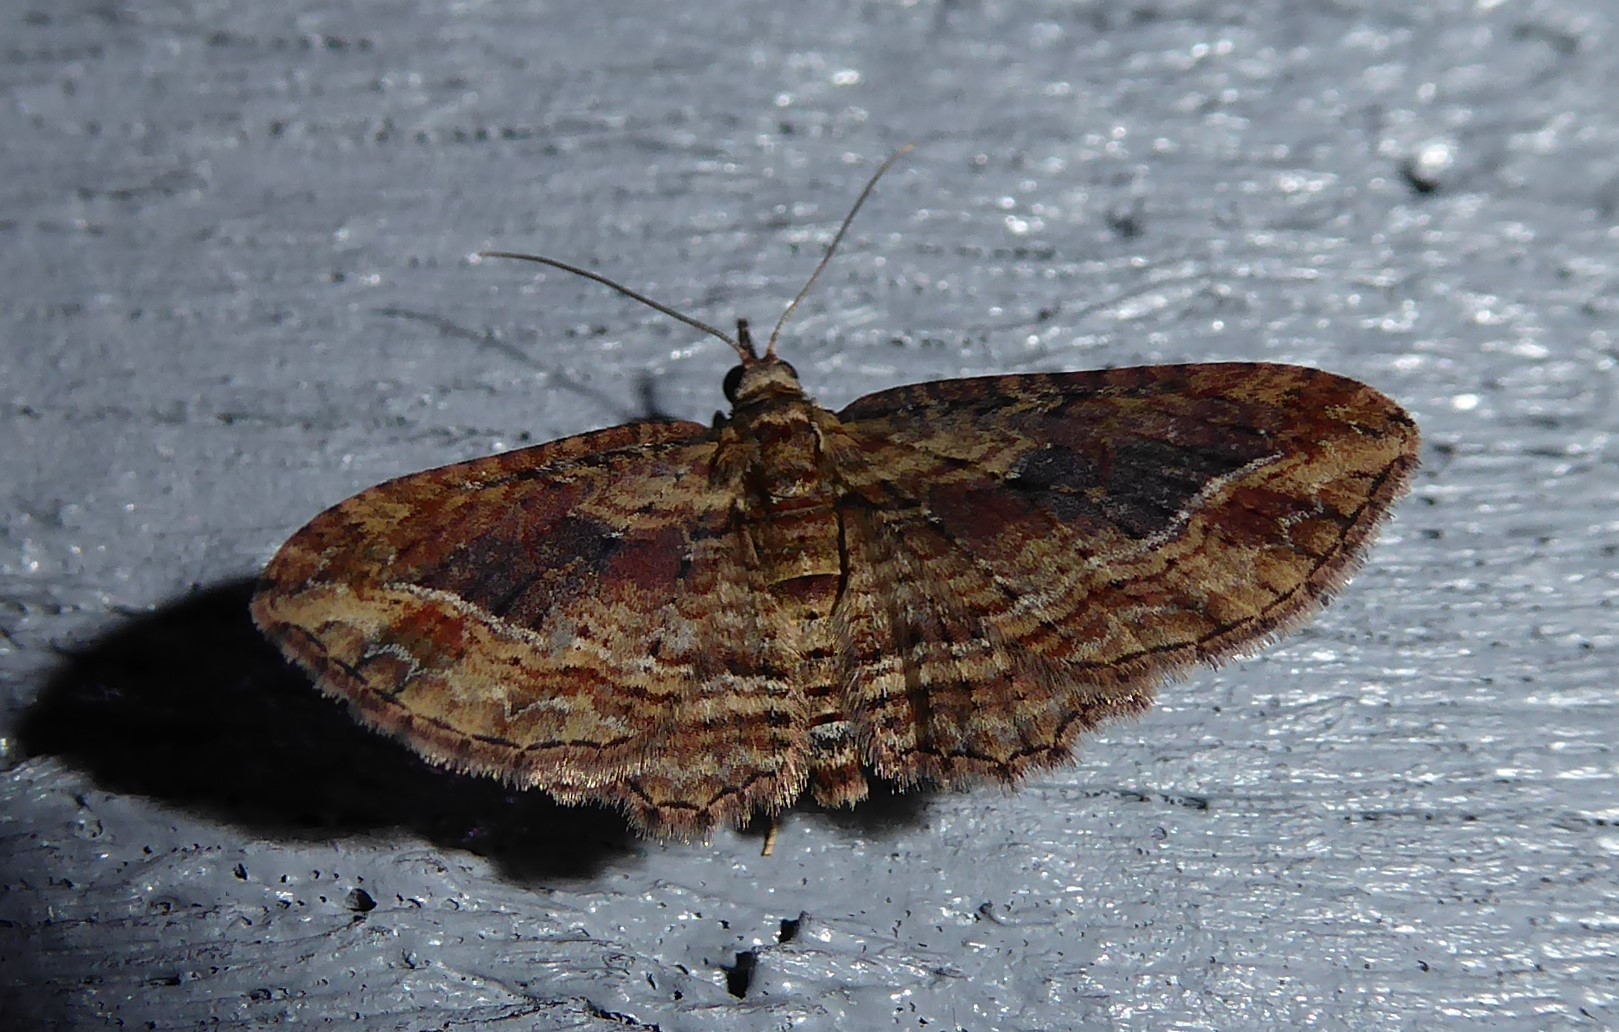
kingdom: Animalia
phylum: Arthropoda
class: Insecta
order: Lepidoptera
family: Geometridae
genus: Chloroclystis
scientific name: Chloroclystis filata
